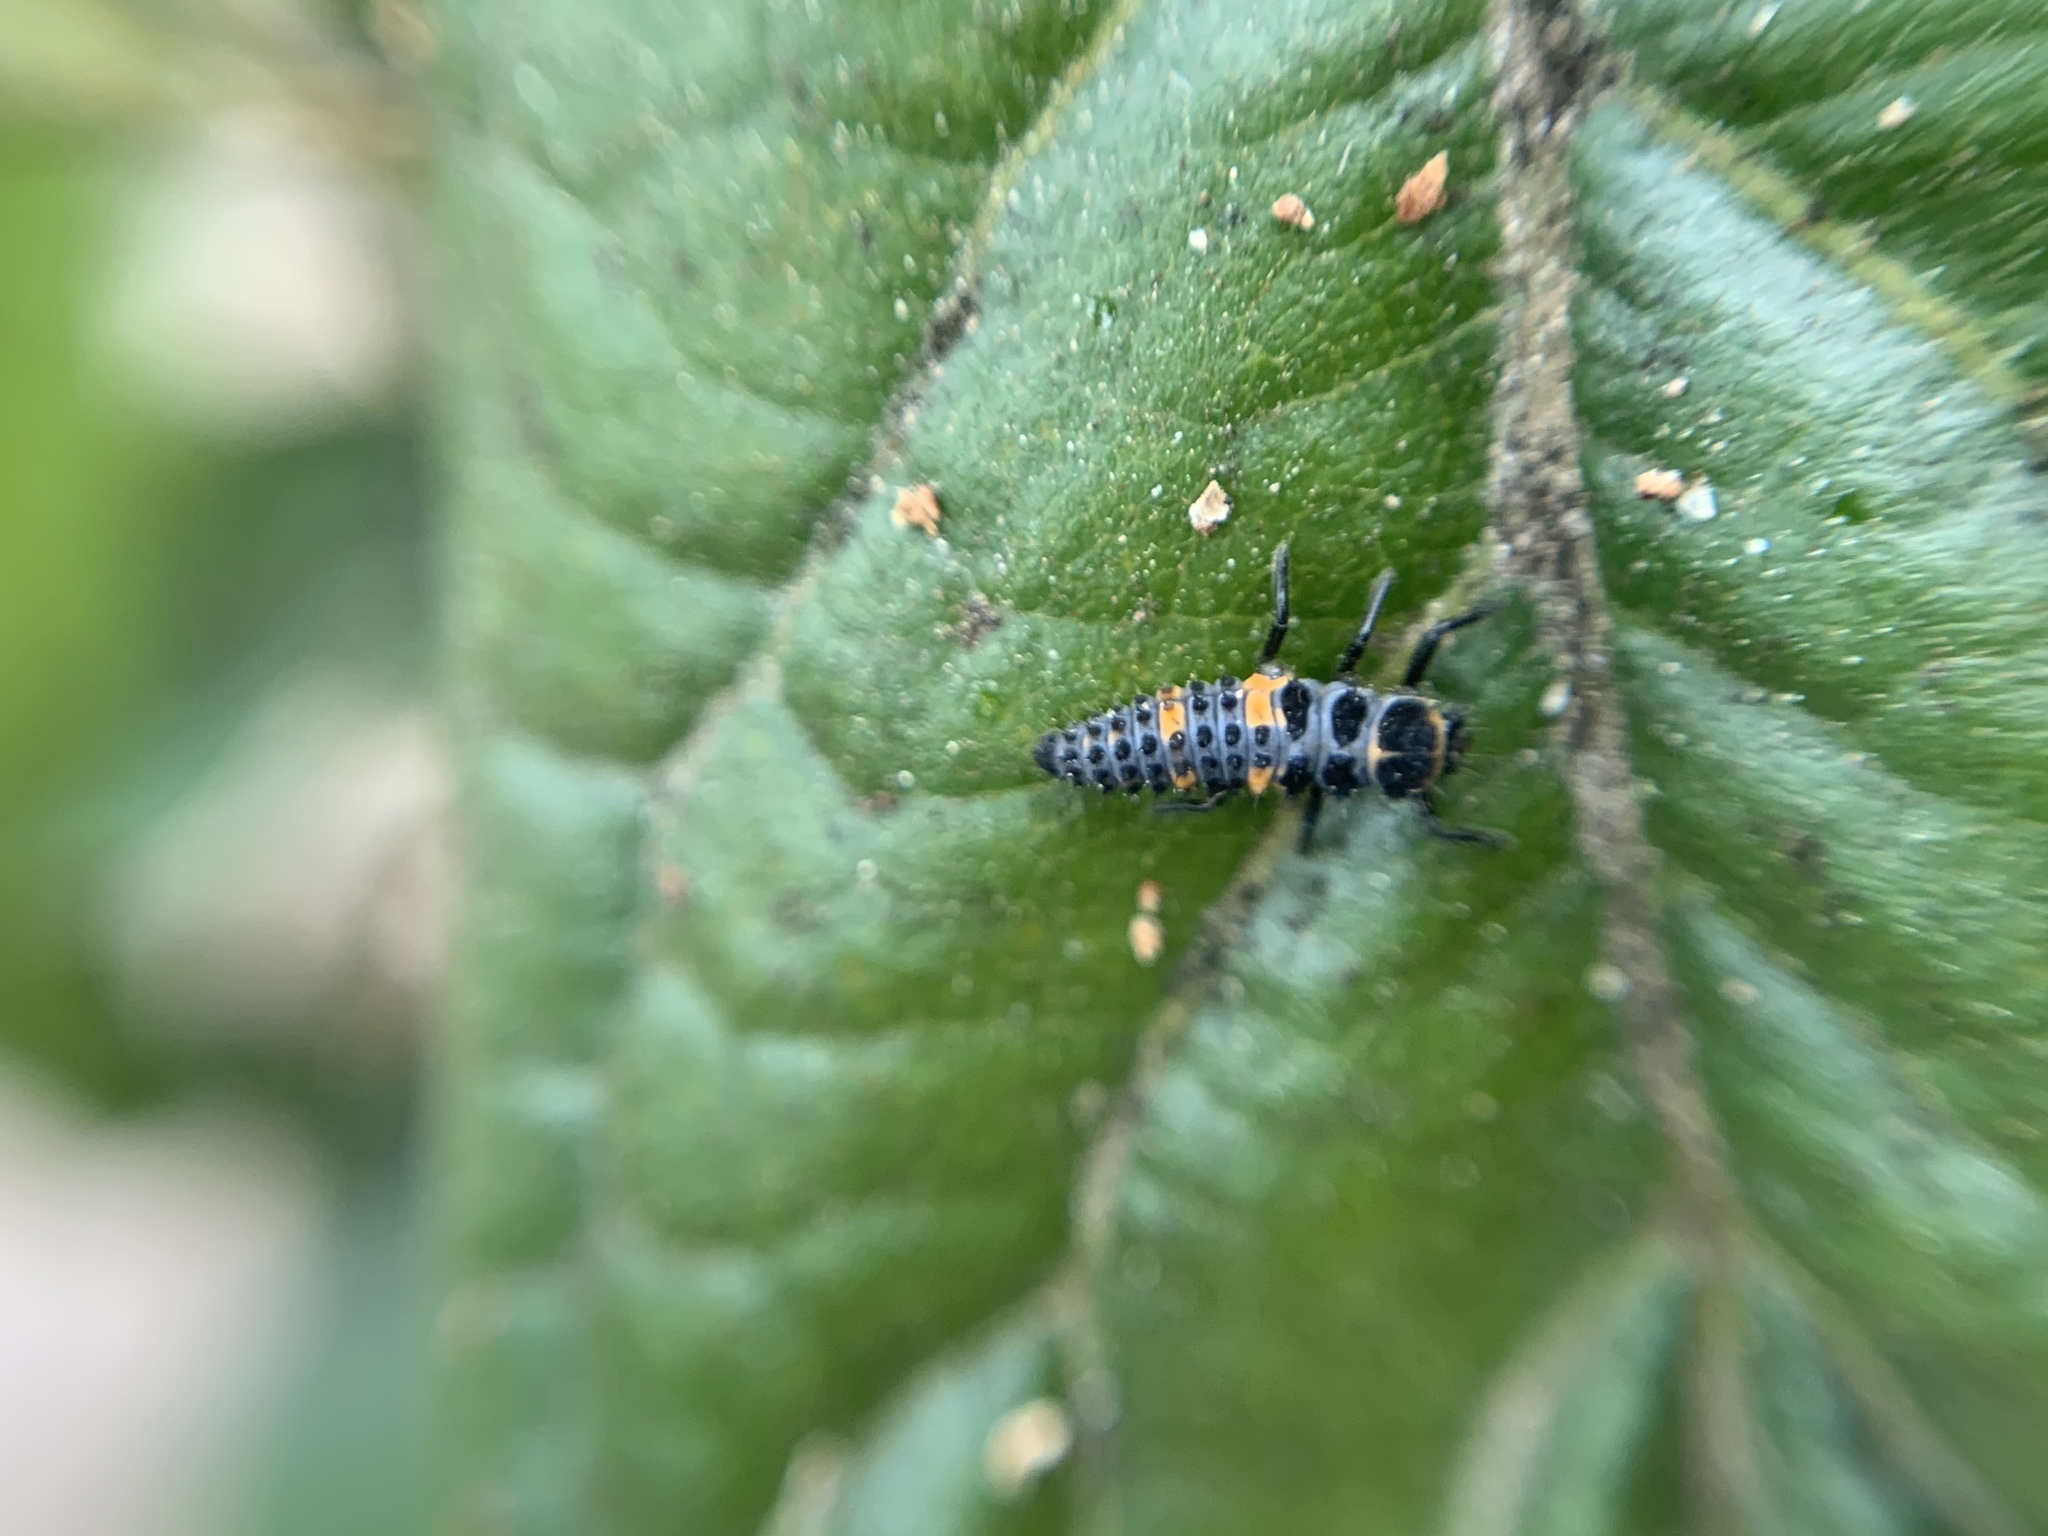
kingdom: Animalia
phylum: Arthropoda
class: Insecta
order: Coleoptera
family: Coccinellidae
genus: Hippodamia
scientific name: Hippodamia convergens
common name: Convergent lady beetle
